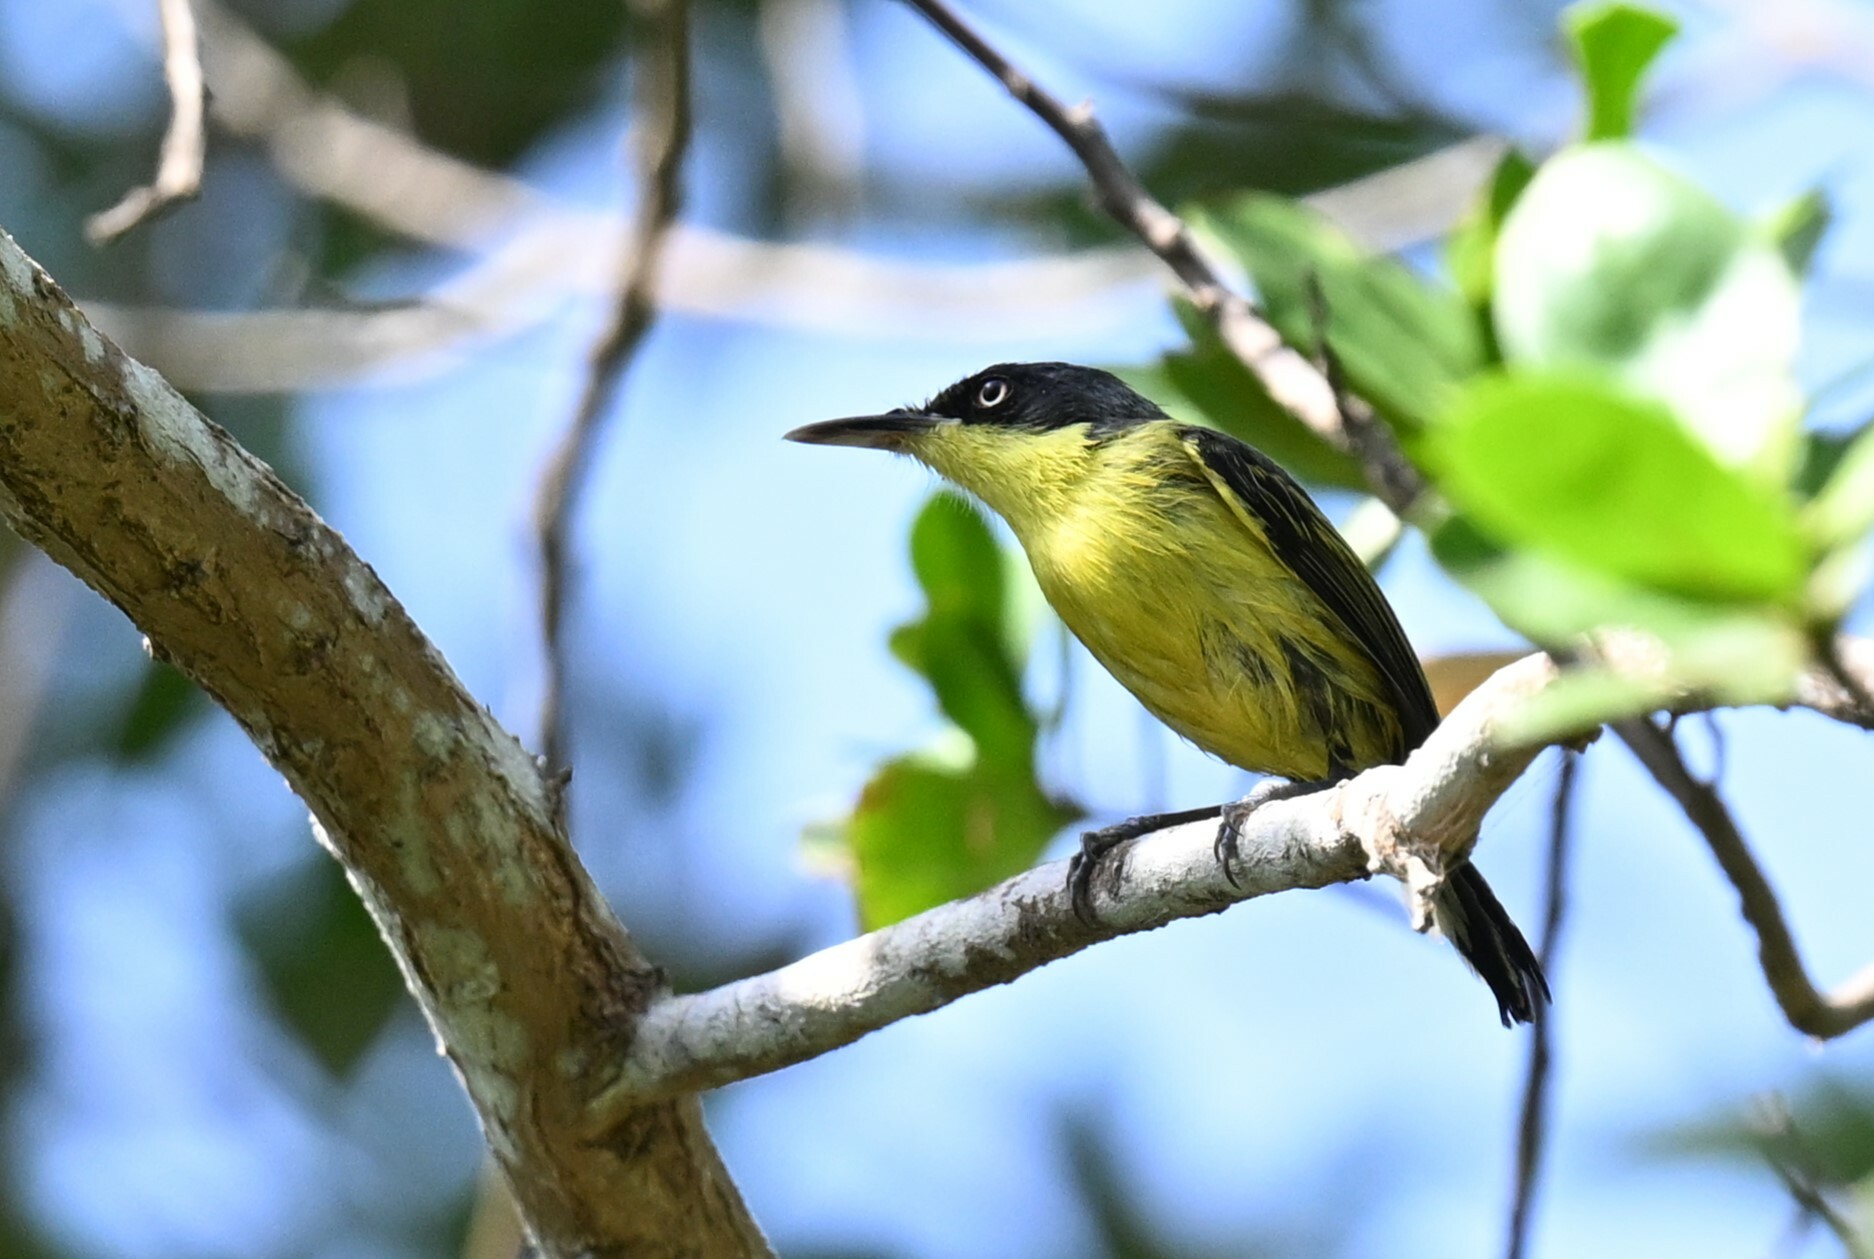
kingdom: Animalia
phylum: Chordata
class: Aves
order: Passeriformes
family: Tyrannidae
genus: Todirostrum
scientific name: Todirostrum cinereum
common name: Common tody-flycatcher
